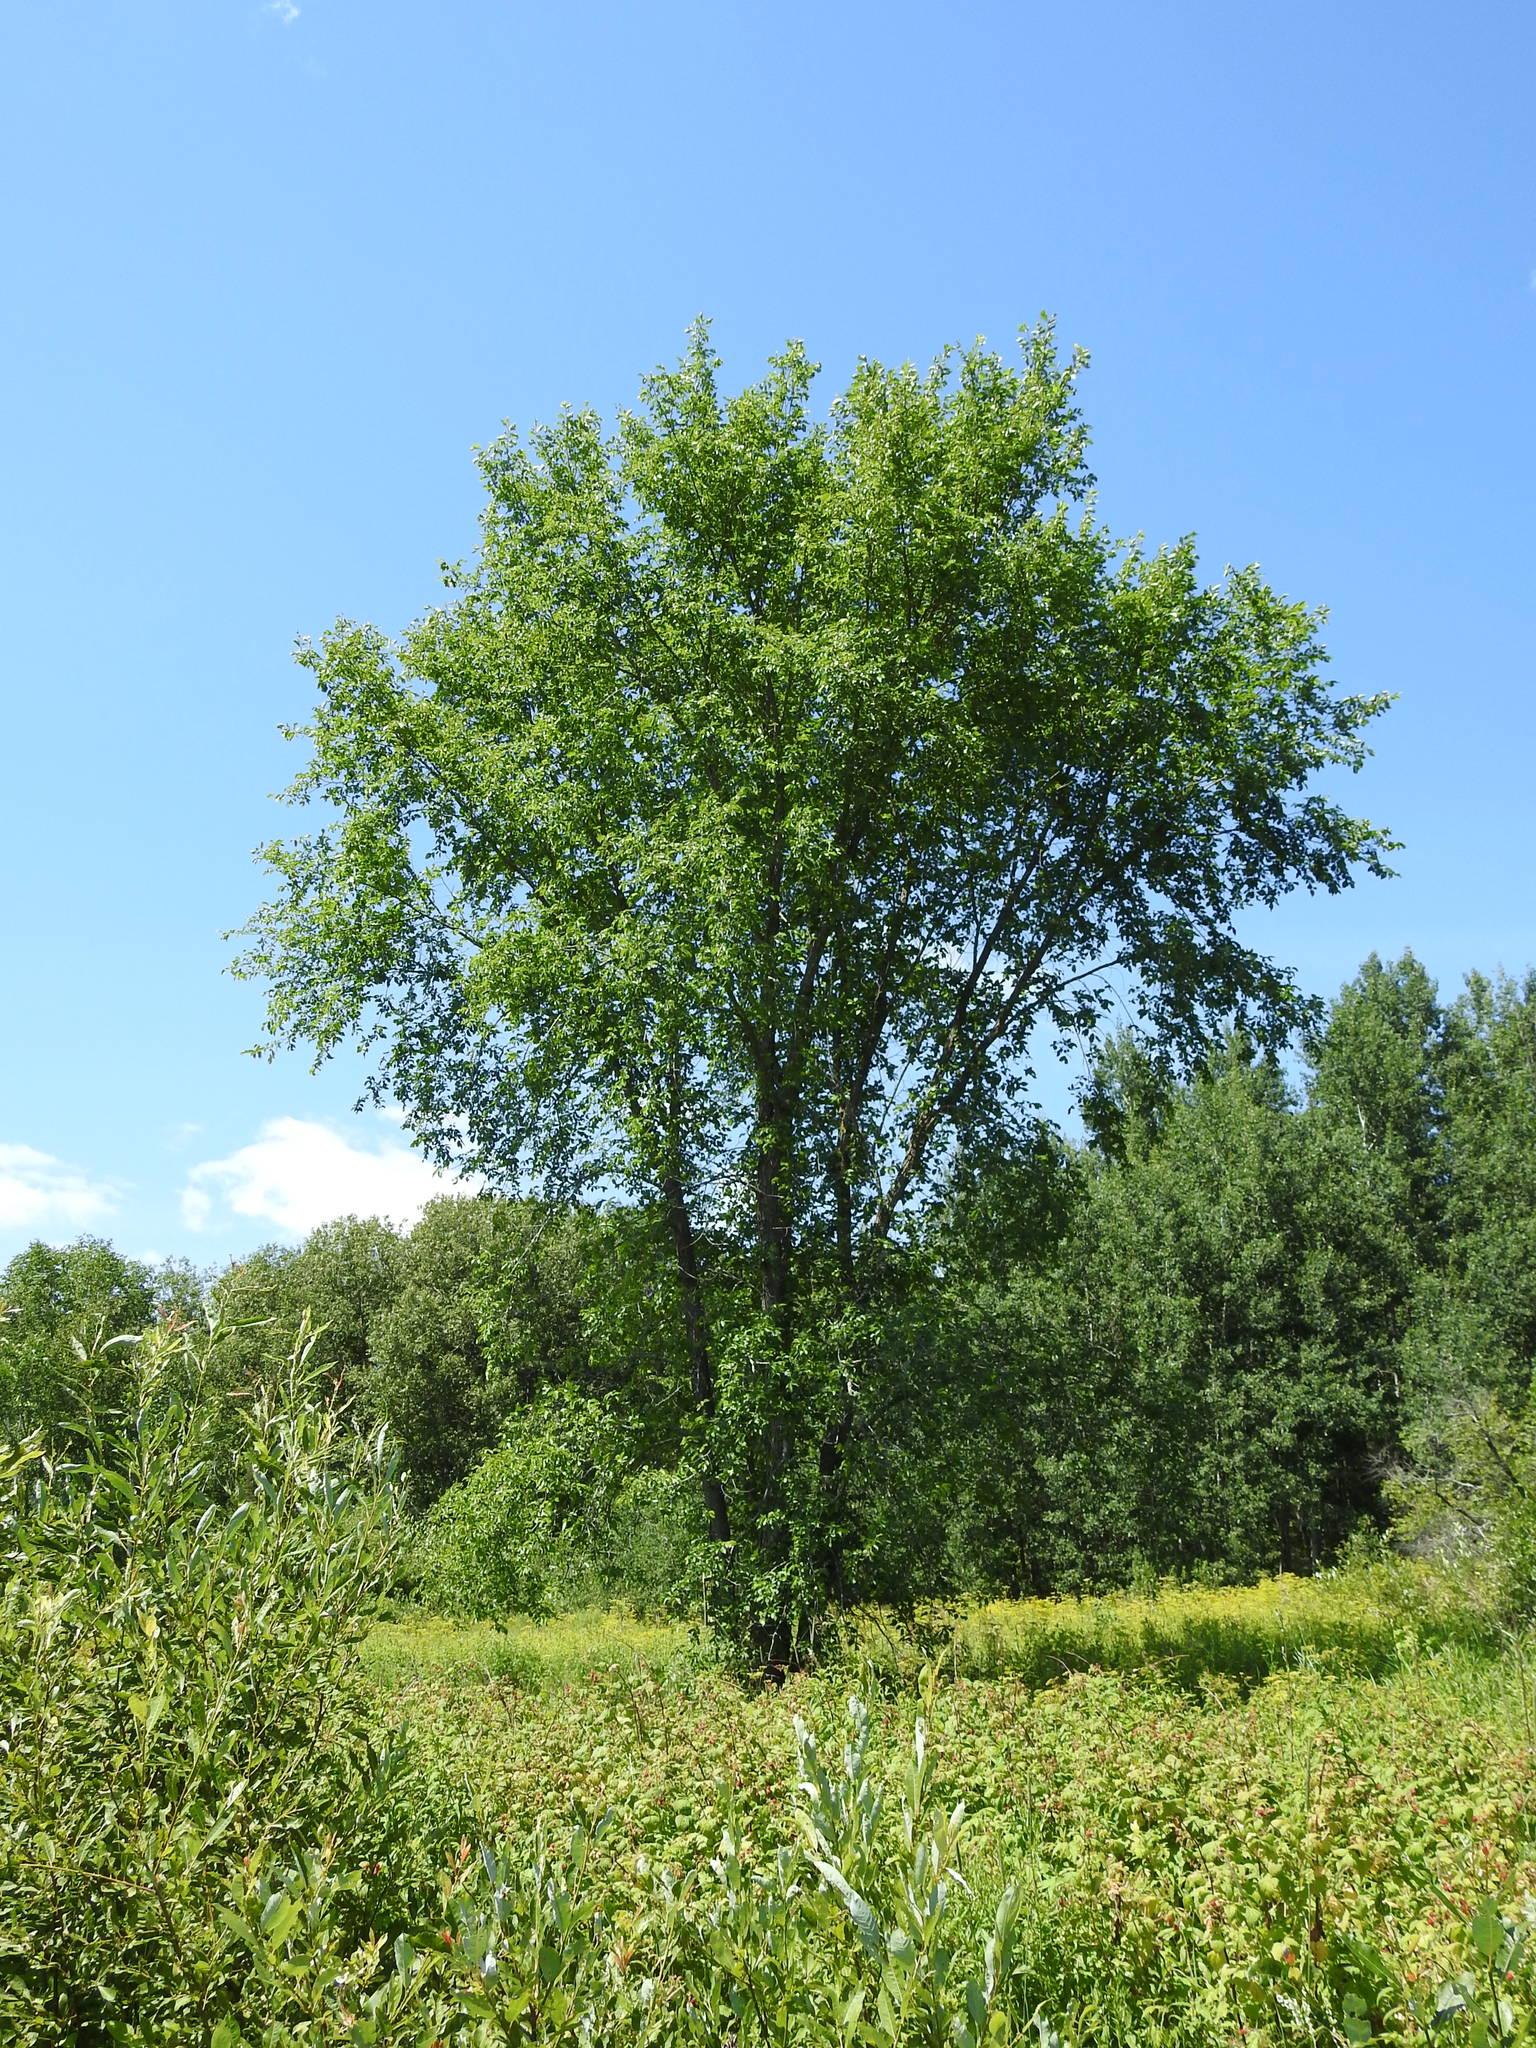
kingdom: Plantae
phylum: Tracheophyta
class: Magnoliopsida
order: Rosales
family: Ulmaceae
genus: Ulmus
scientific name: Ulmus americana
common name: American elm
